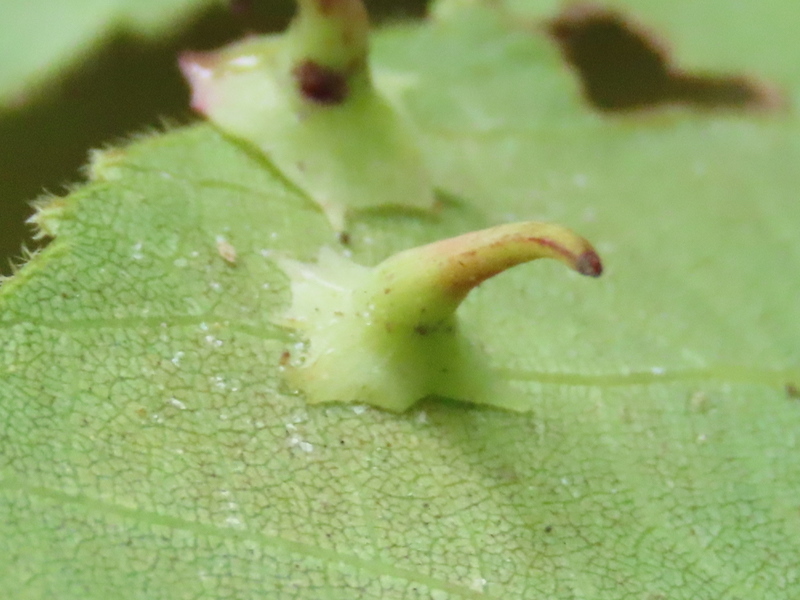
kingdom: Animalia
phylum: Arthropoda
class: Insecta
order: Diptera
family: Cecidomyiidae
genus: Caryomyia
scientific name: Caryomyia stellata
